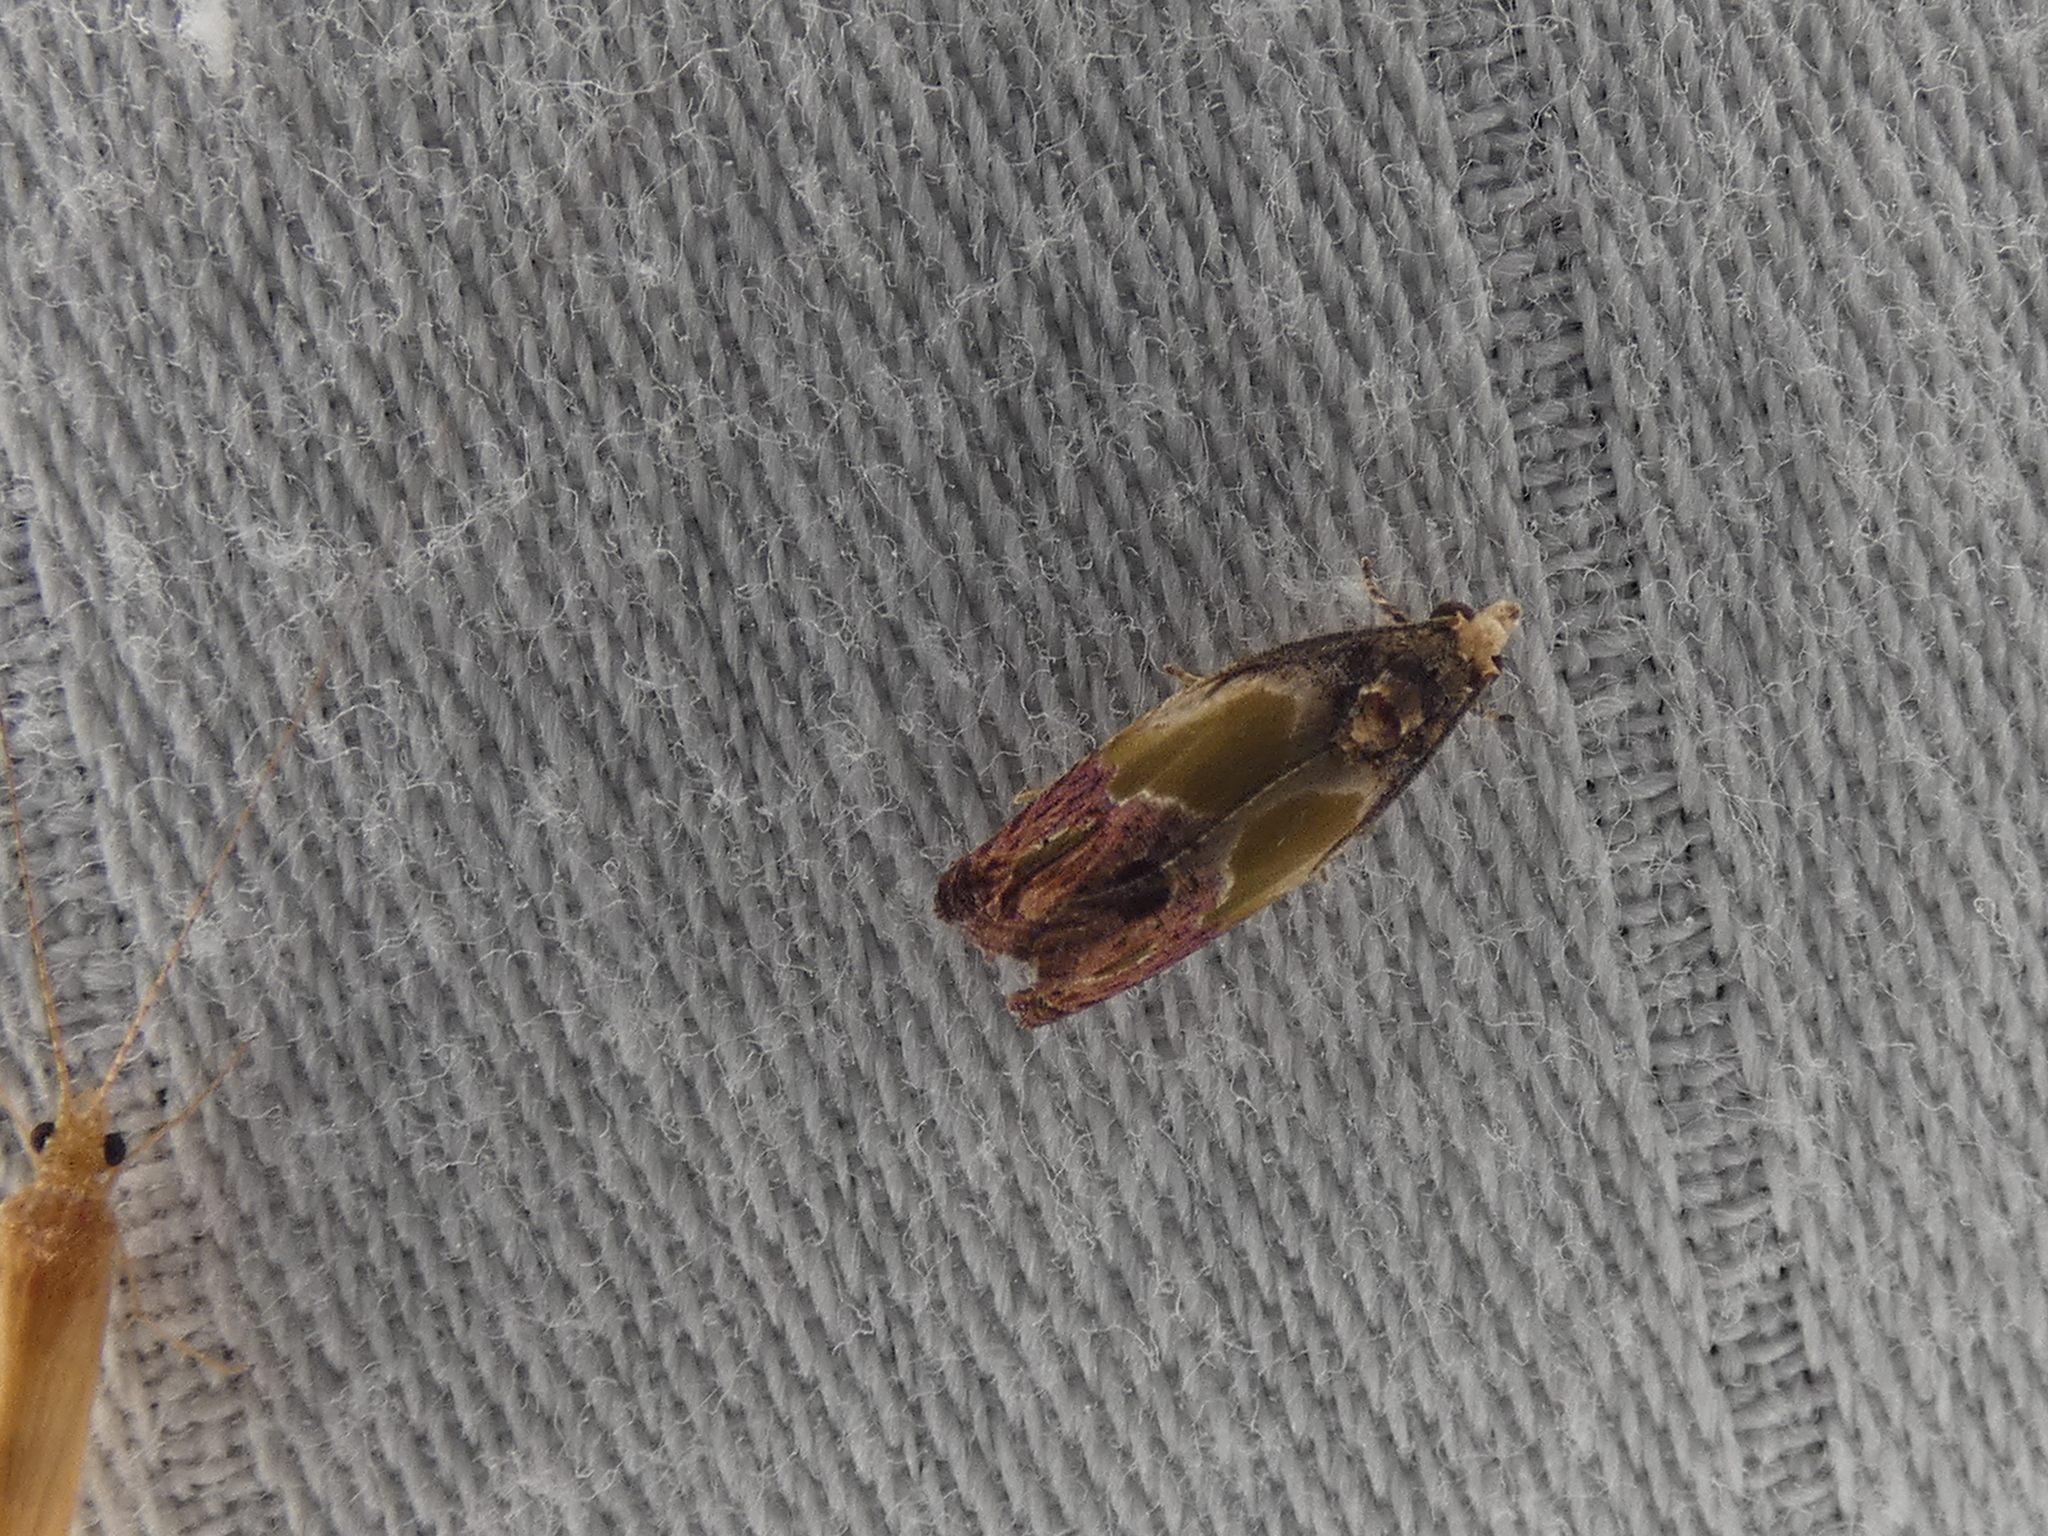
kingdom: Animalia
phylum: Arthropoda
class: Insecta
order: Lepidoptera
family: Tortricidae
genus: Eumarozia
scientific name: Eumarozia malachitana
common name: Sculptured moth
